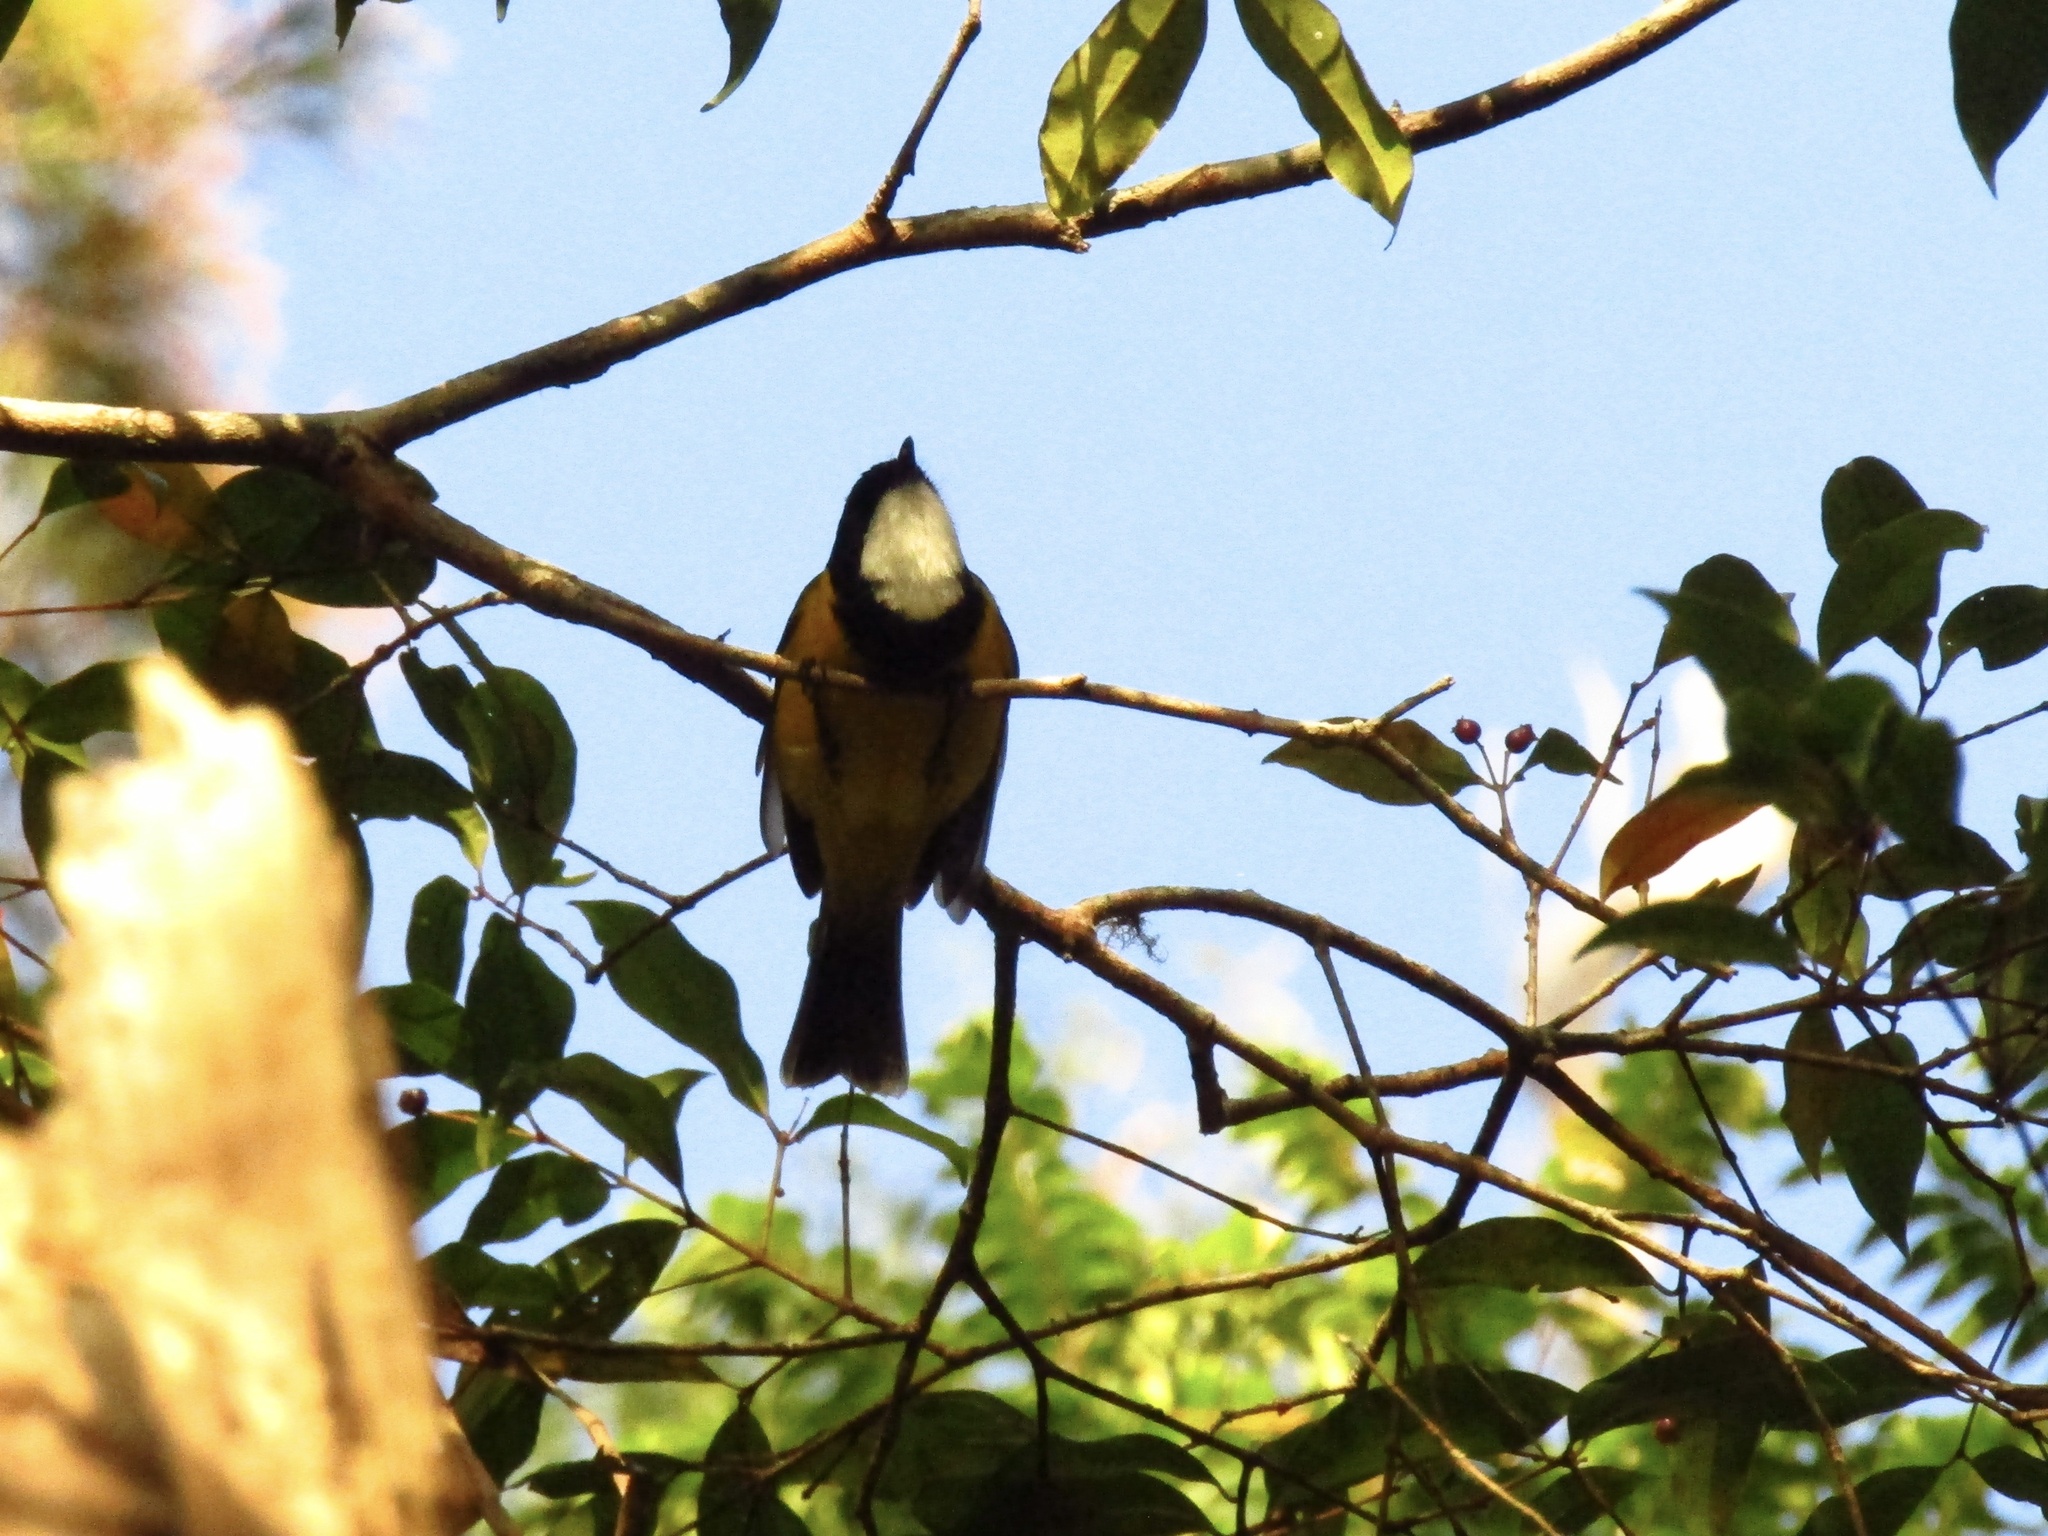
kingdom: Animalia
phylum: Chordata
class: Aves
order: Passeriformes
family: Pachycephalidae
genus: Pachycephala
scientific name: Pachycephala pectoralis
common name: Australian golden whistler
